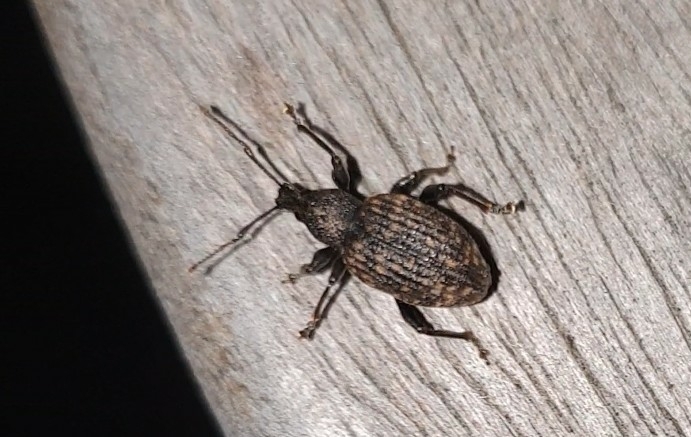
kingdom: Animalia
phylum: Arthropoda
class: Insecta
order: Coleoptera
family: Curculionidae
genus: Otiorhynchus
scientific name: Otiorhynchus sulcatus
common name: Black vine weevil
